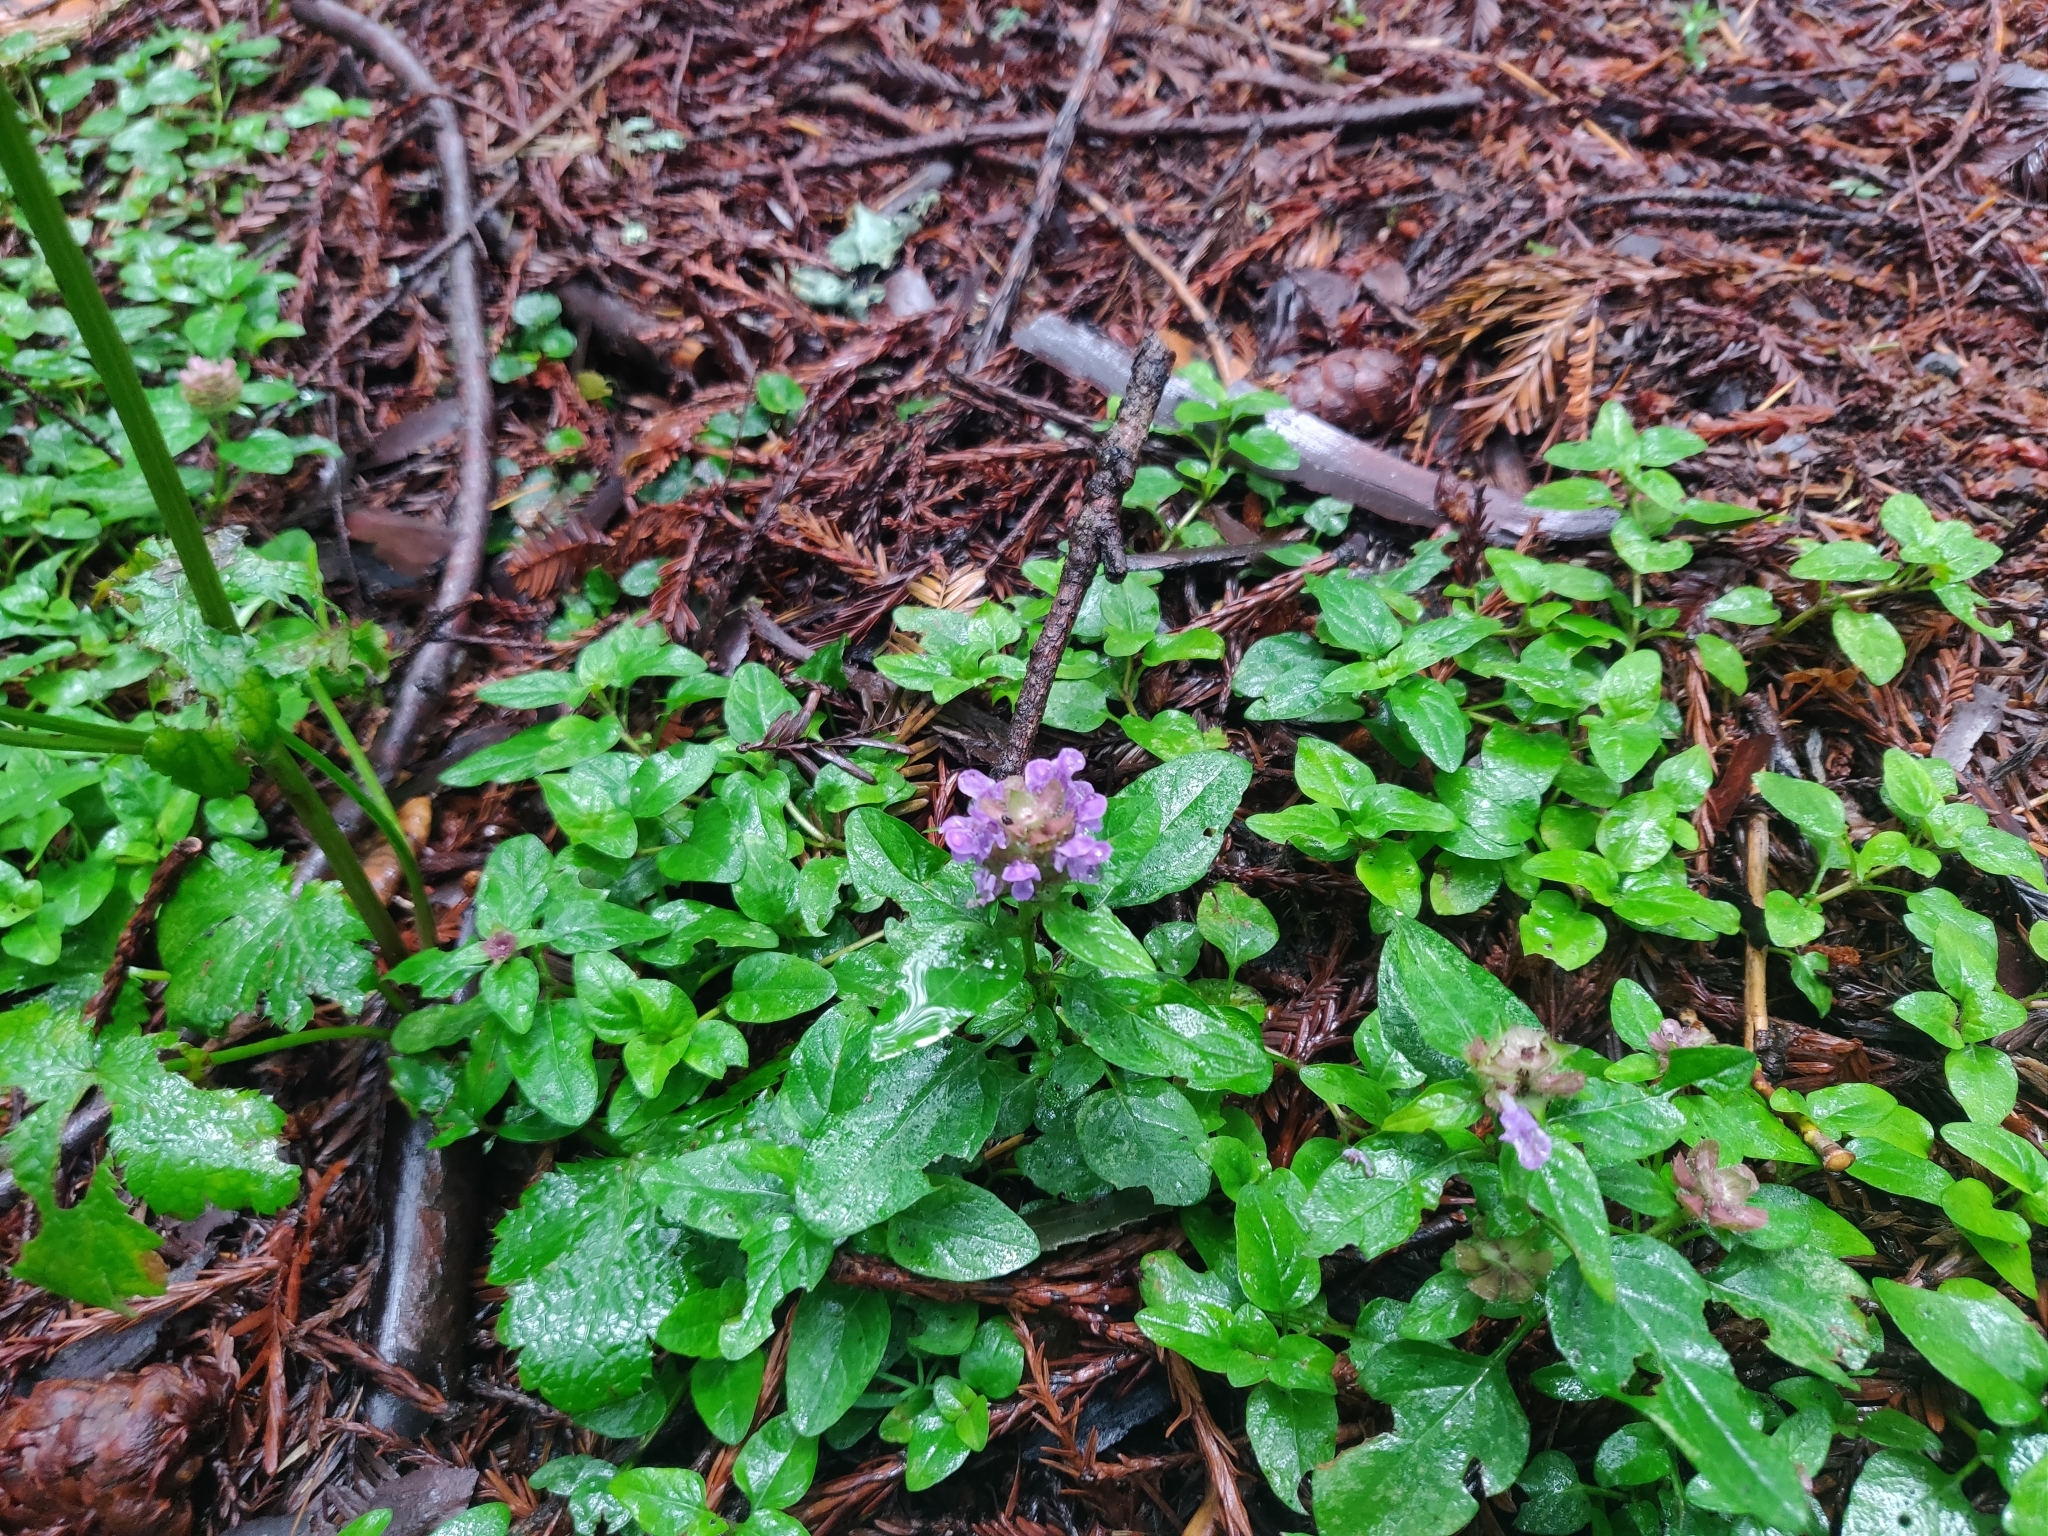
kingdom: Plantae
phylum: Tracheophyta
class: Magnoliopsida
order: Lamiales
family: Lamiaceae
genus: Prunella
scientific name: Prunella vulgaris
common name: Heal-all
